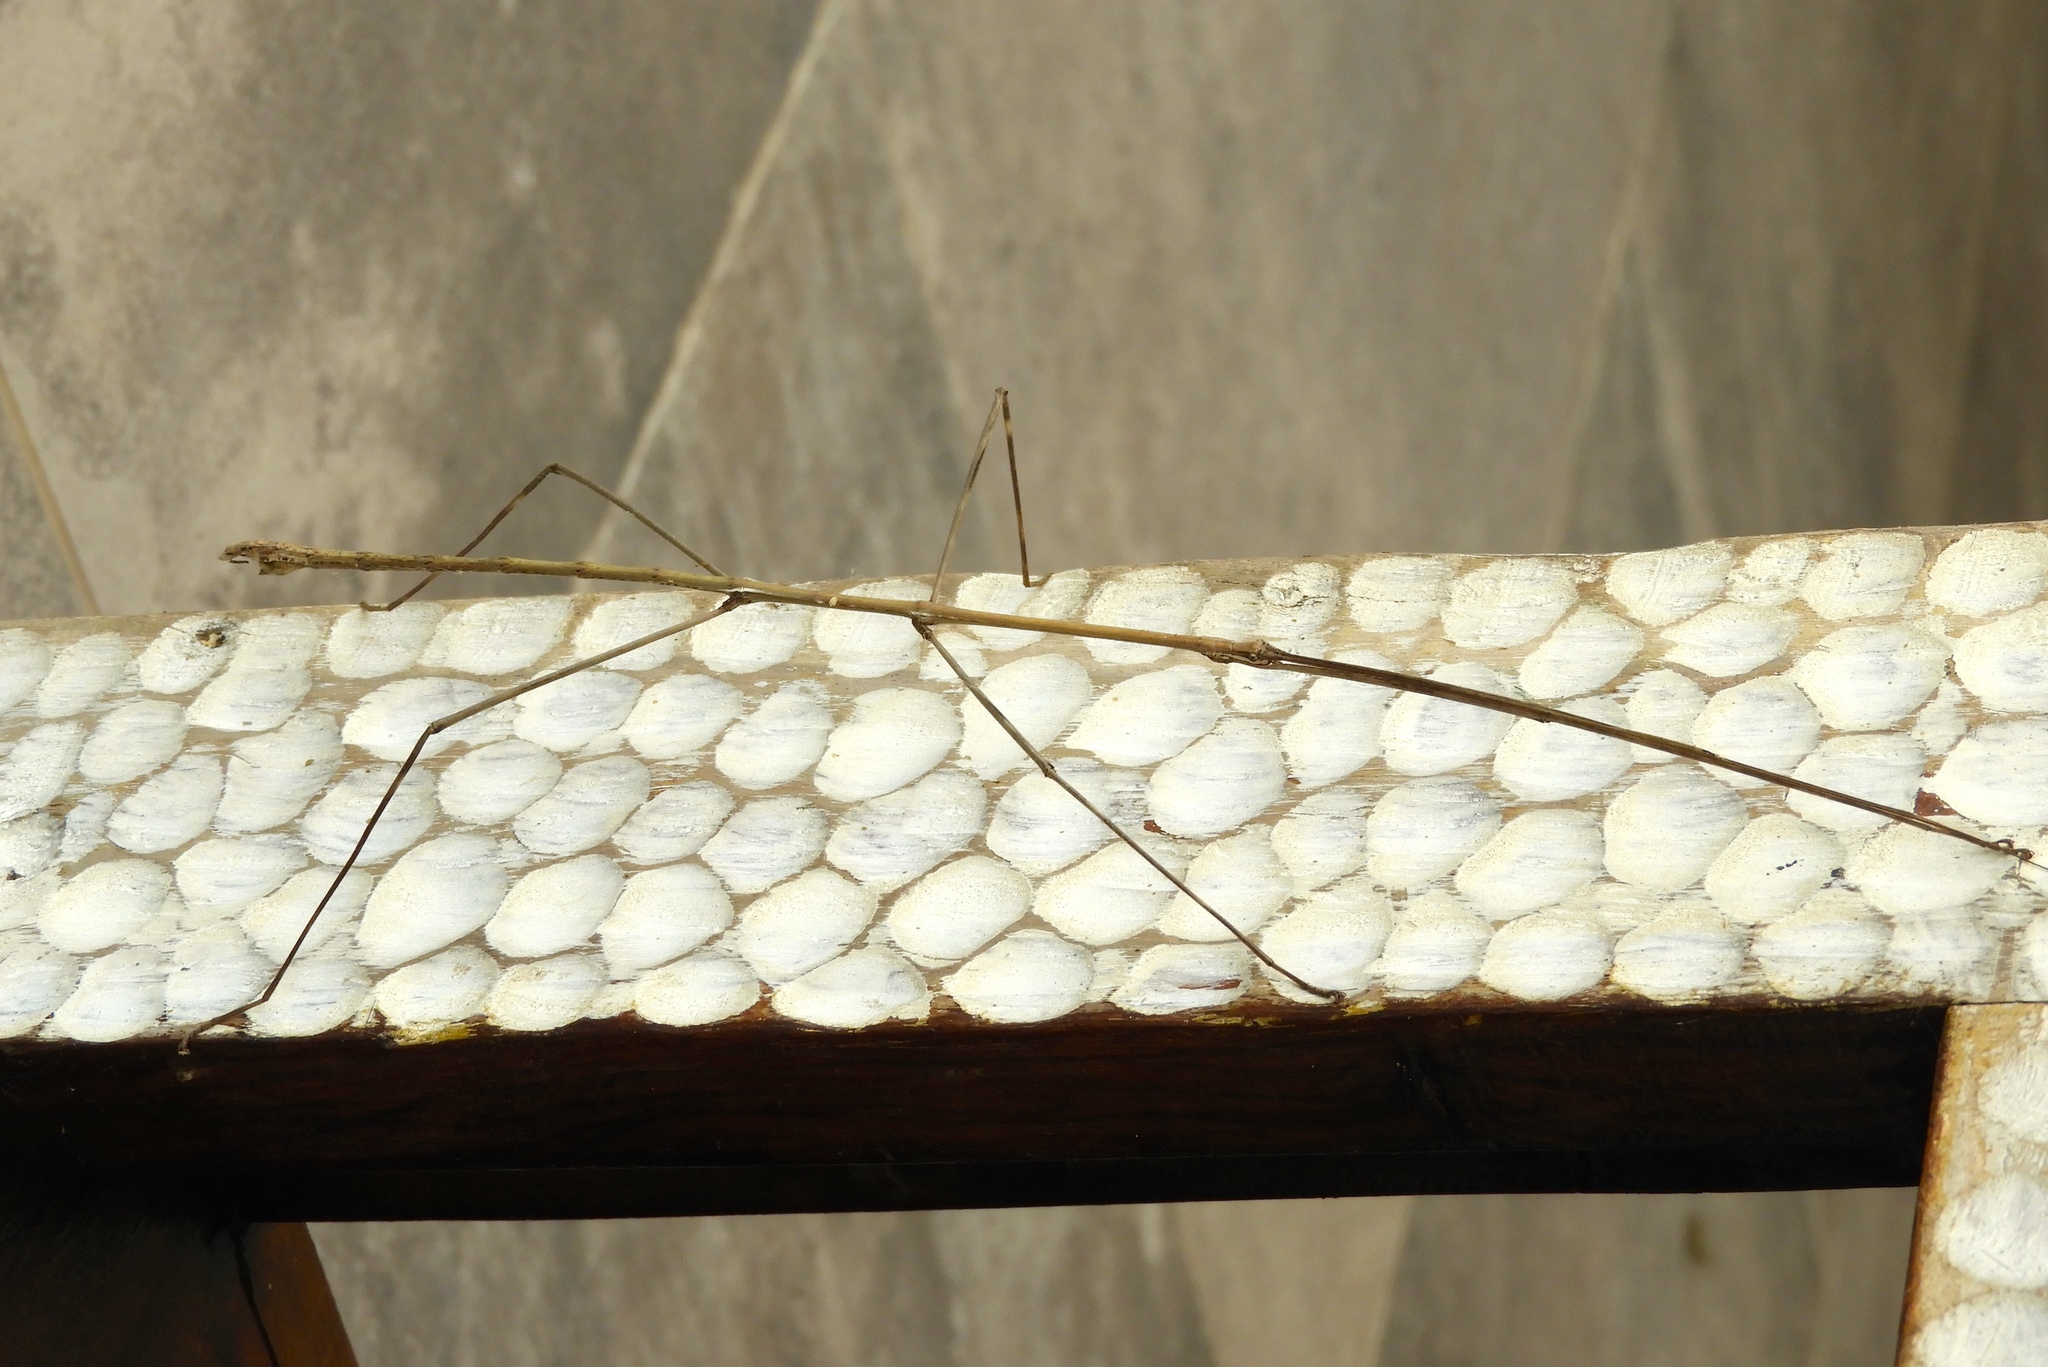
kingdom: Animalia
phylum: Arthropoda
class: Insecta
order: Phasmida
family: Diapheromeridae
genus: Phanocles
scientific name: Phanocles
